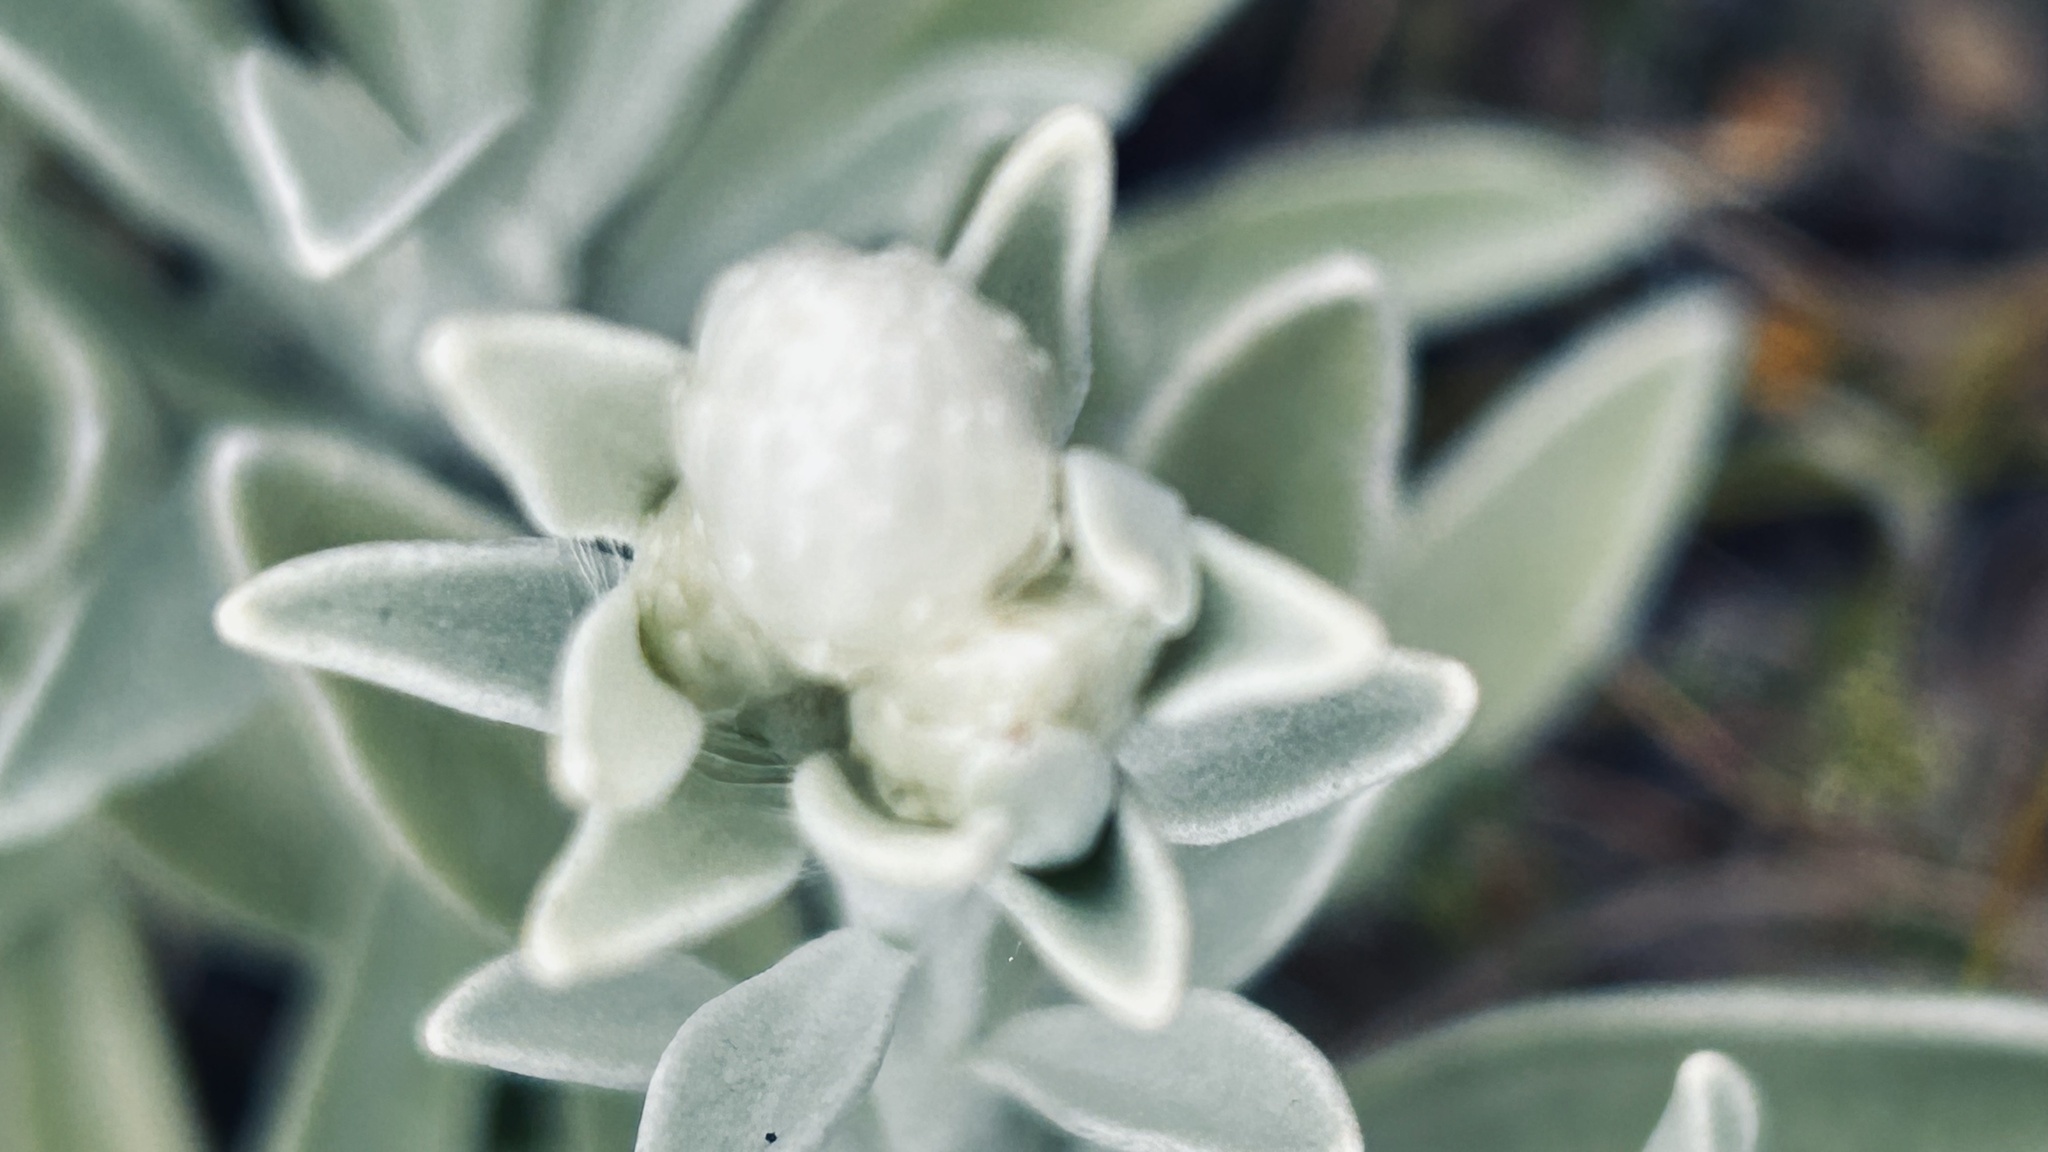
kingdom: Plantae
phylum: Tracheophyta
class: Magnoliopsida
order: Asterales
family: Asteraceae
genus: Syncarpha
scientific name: Syncarpha argyropsis
